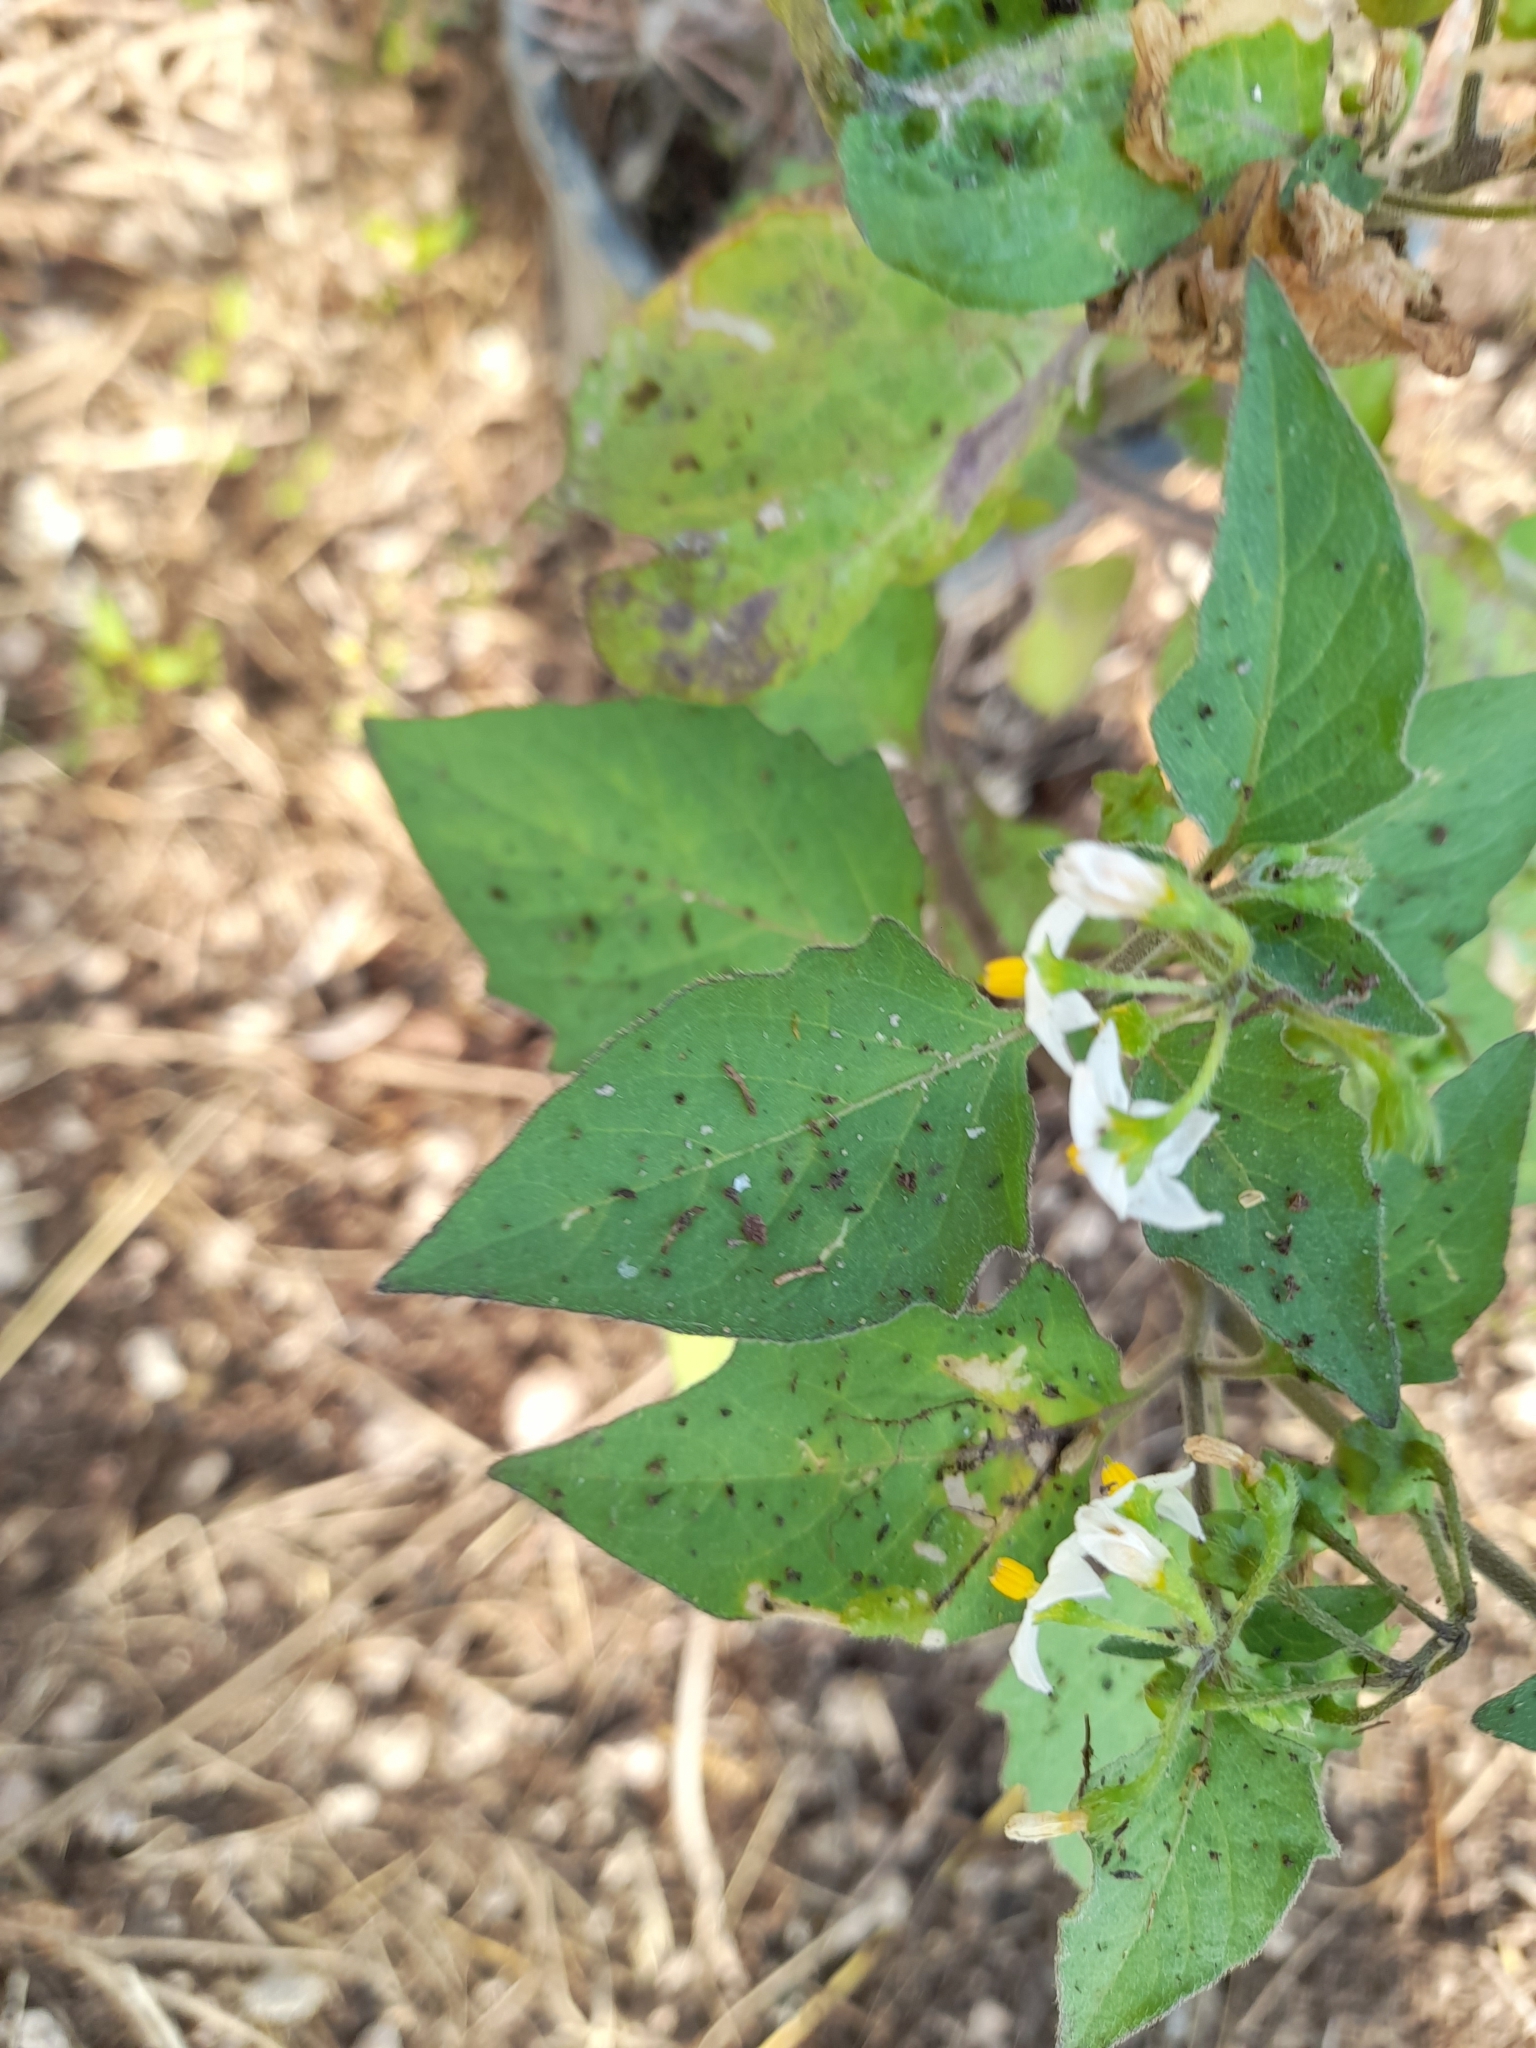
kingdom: Plantae
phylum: Tracheophyta
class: Magnoliopsida
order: Solanales
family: Solanaceae
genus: Solanum
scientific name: Solanum nigrum
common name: Black nightshade
